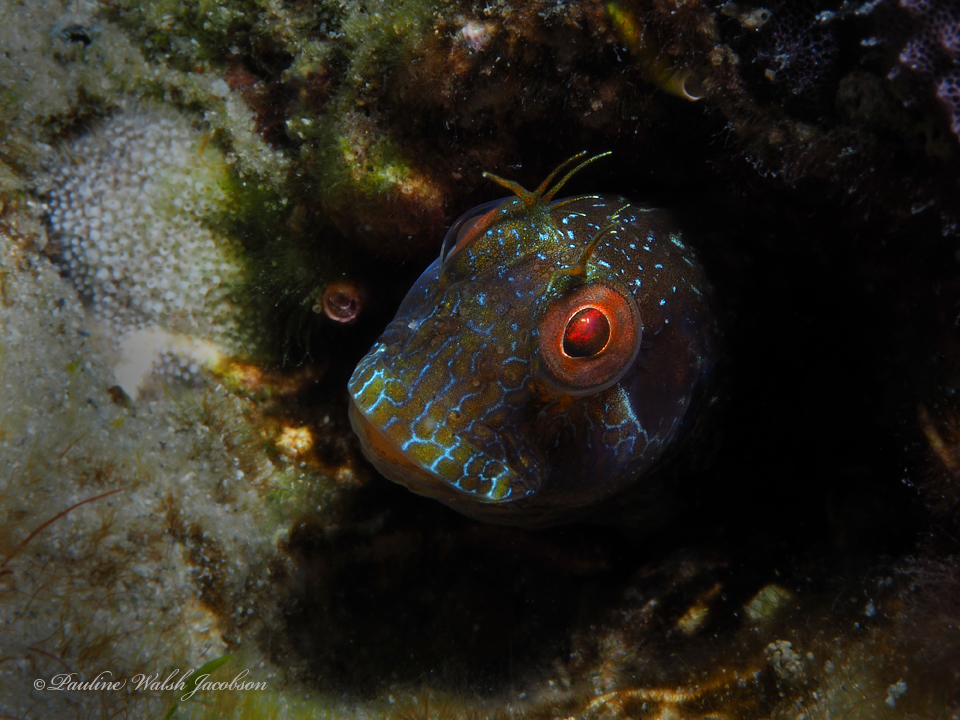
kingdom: Animalia
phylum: Chordata
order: Perciformes
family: Blenniidae
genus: Parablennius
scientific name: Parablennius marmoreus
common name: Seaweed blenny
